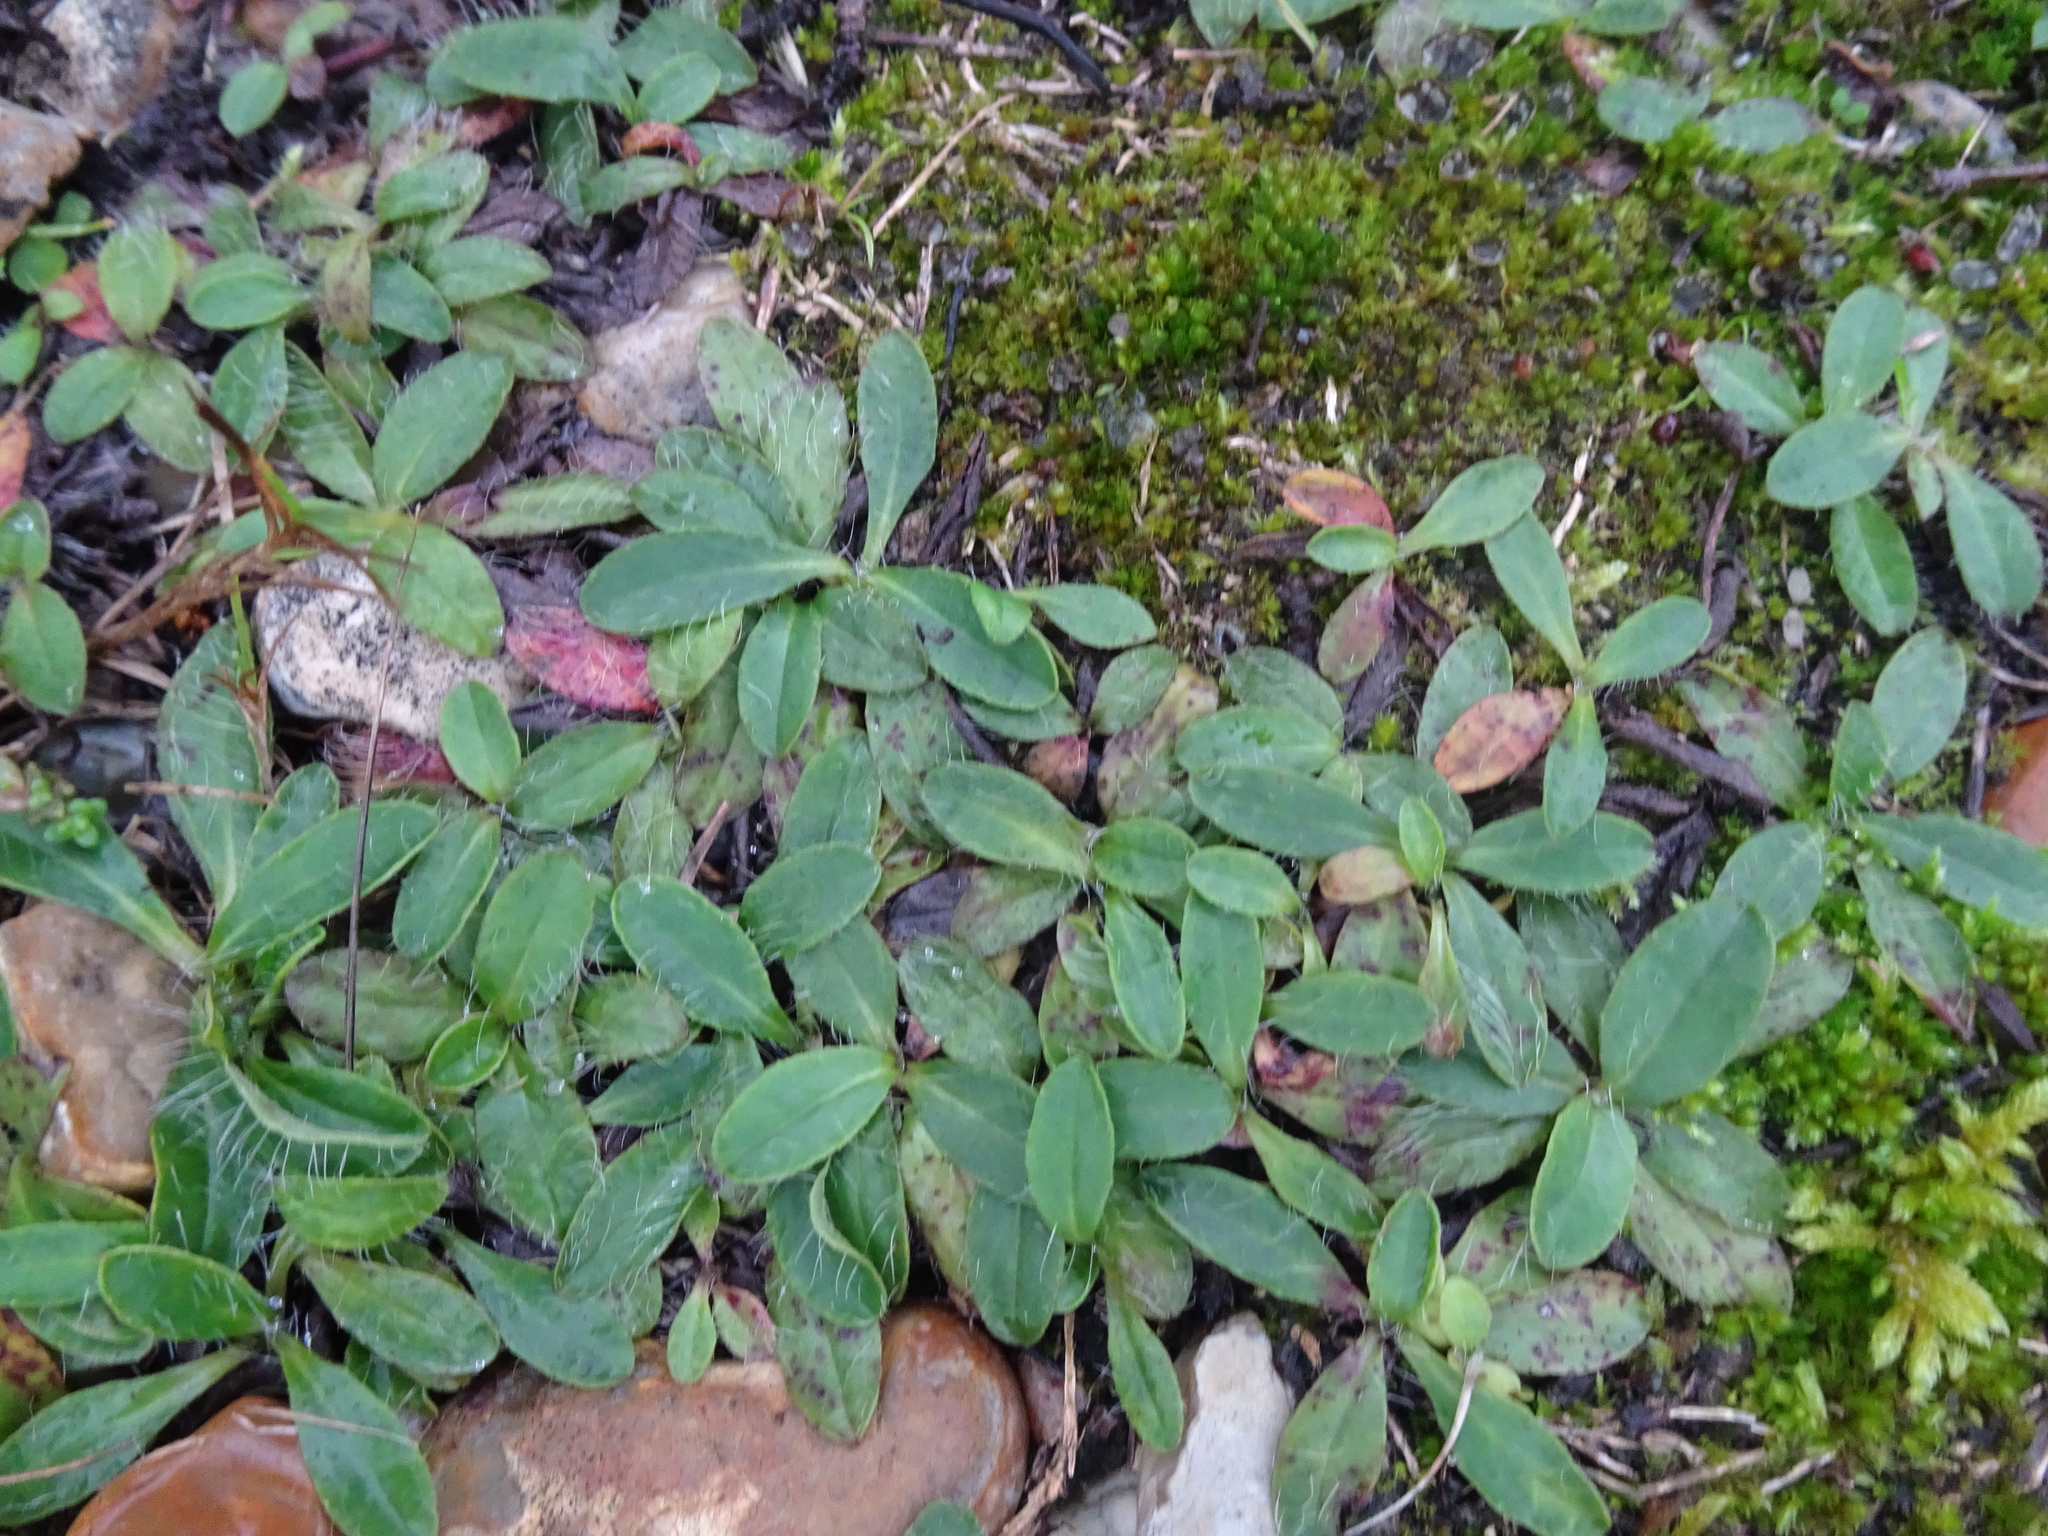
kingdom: Plantae
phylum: Tracheophyta
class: Magnoliopsida
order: Asterales
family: Asteraceae
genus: Pilosella
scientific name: Pilosella officinarum
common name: Mouse-ear hawkweed
